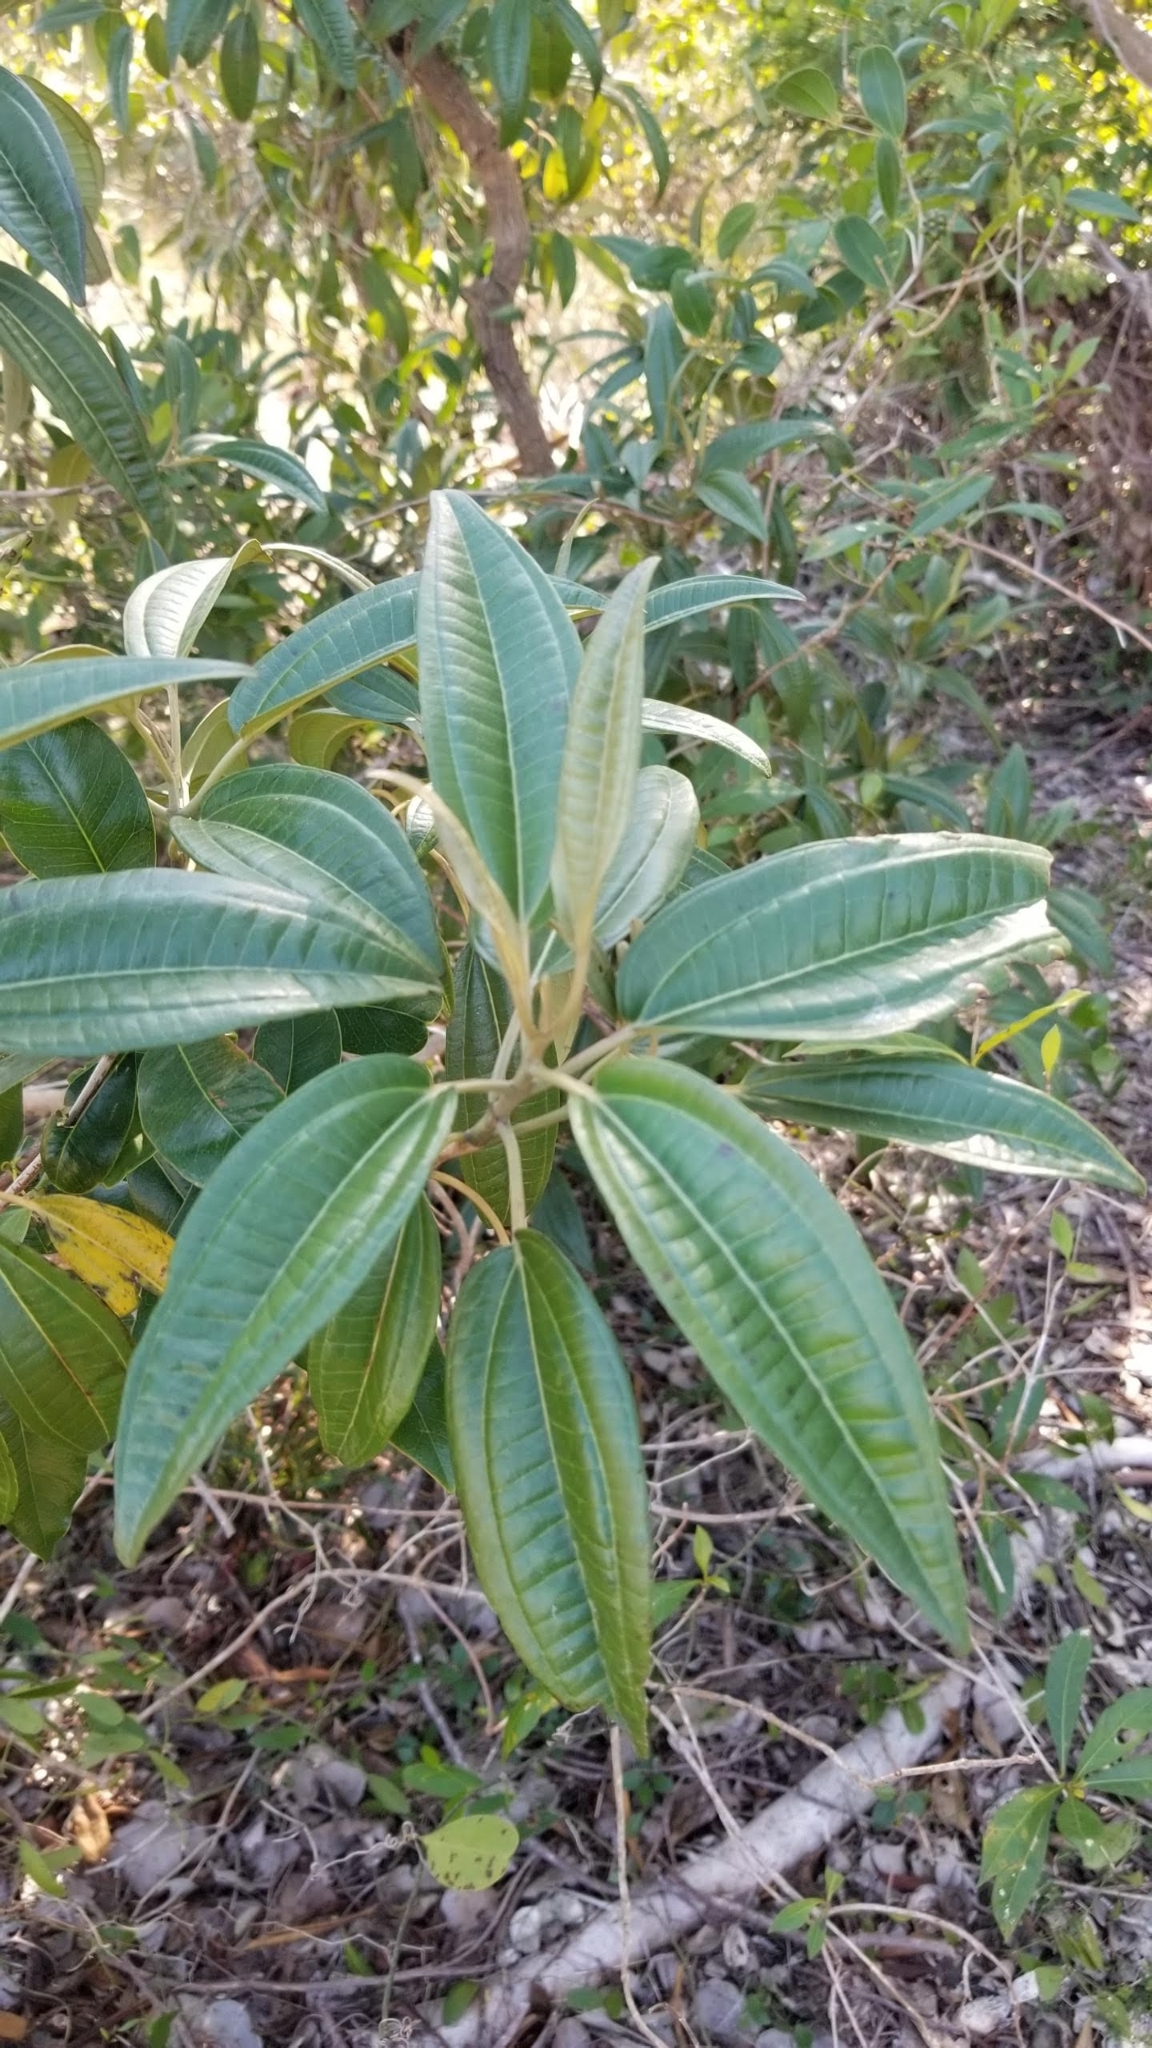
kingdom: Plantae
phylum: Tracheophyta
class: Magnoliopsida
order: Myrtales
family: Melastomataceae
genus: Miconia
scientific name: Miconia bicolor
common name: Johnnyberry
